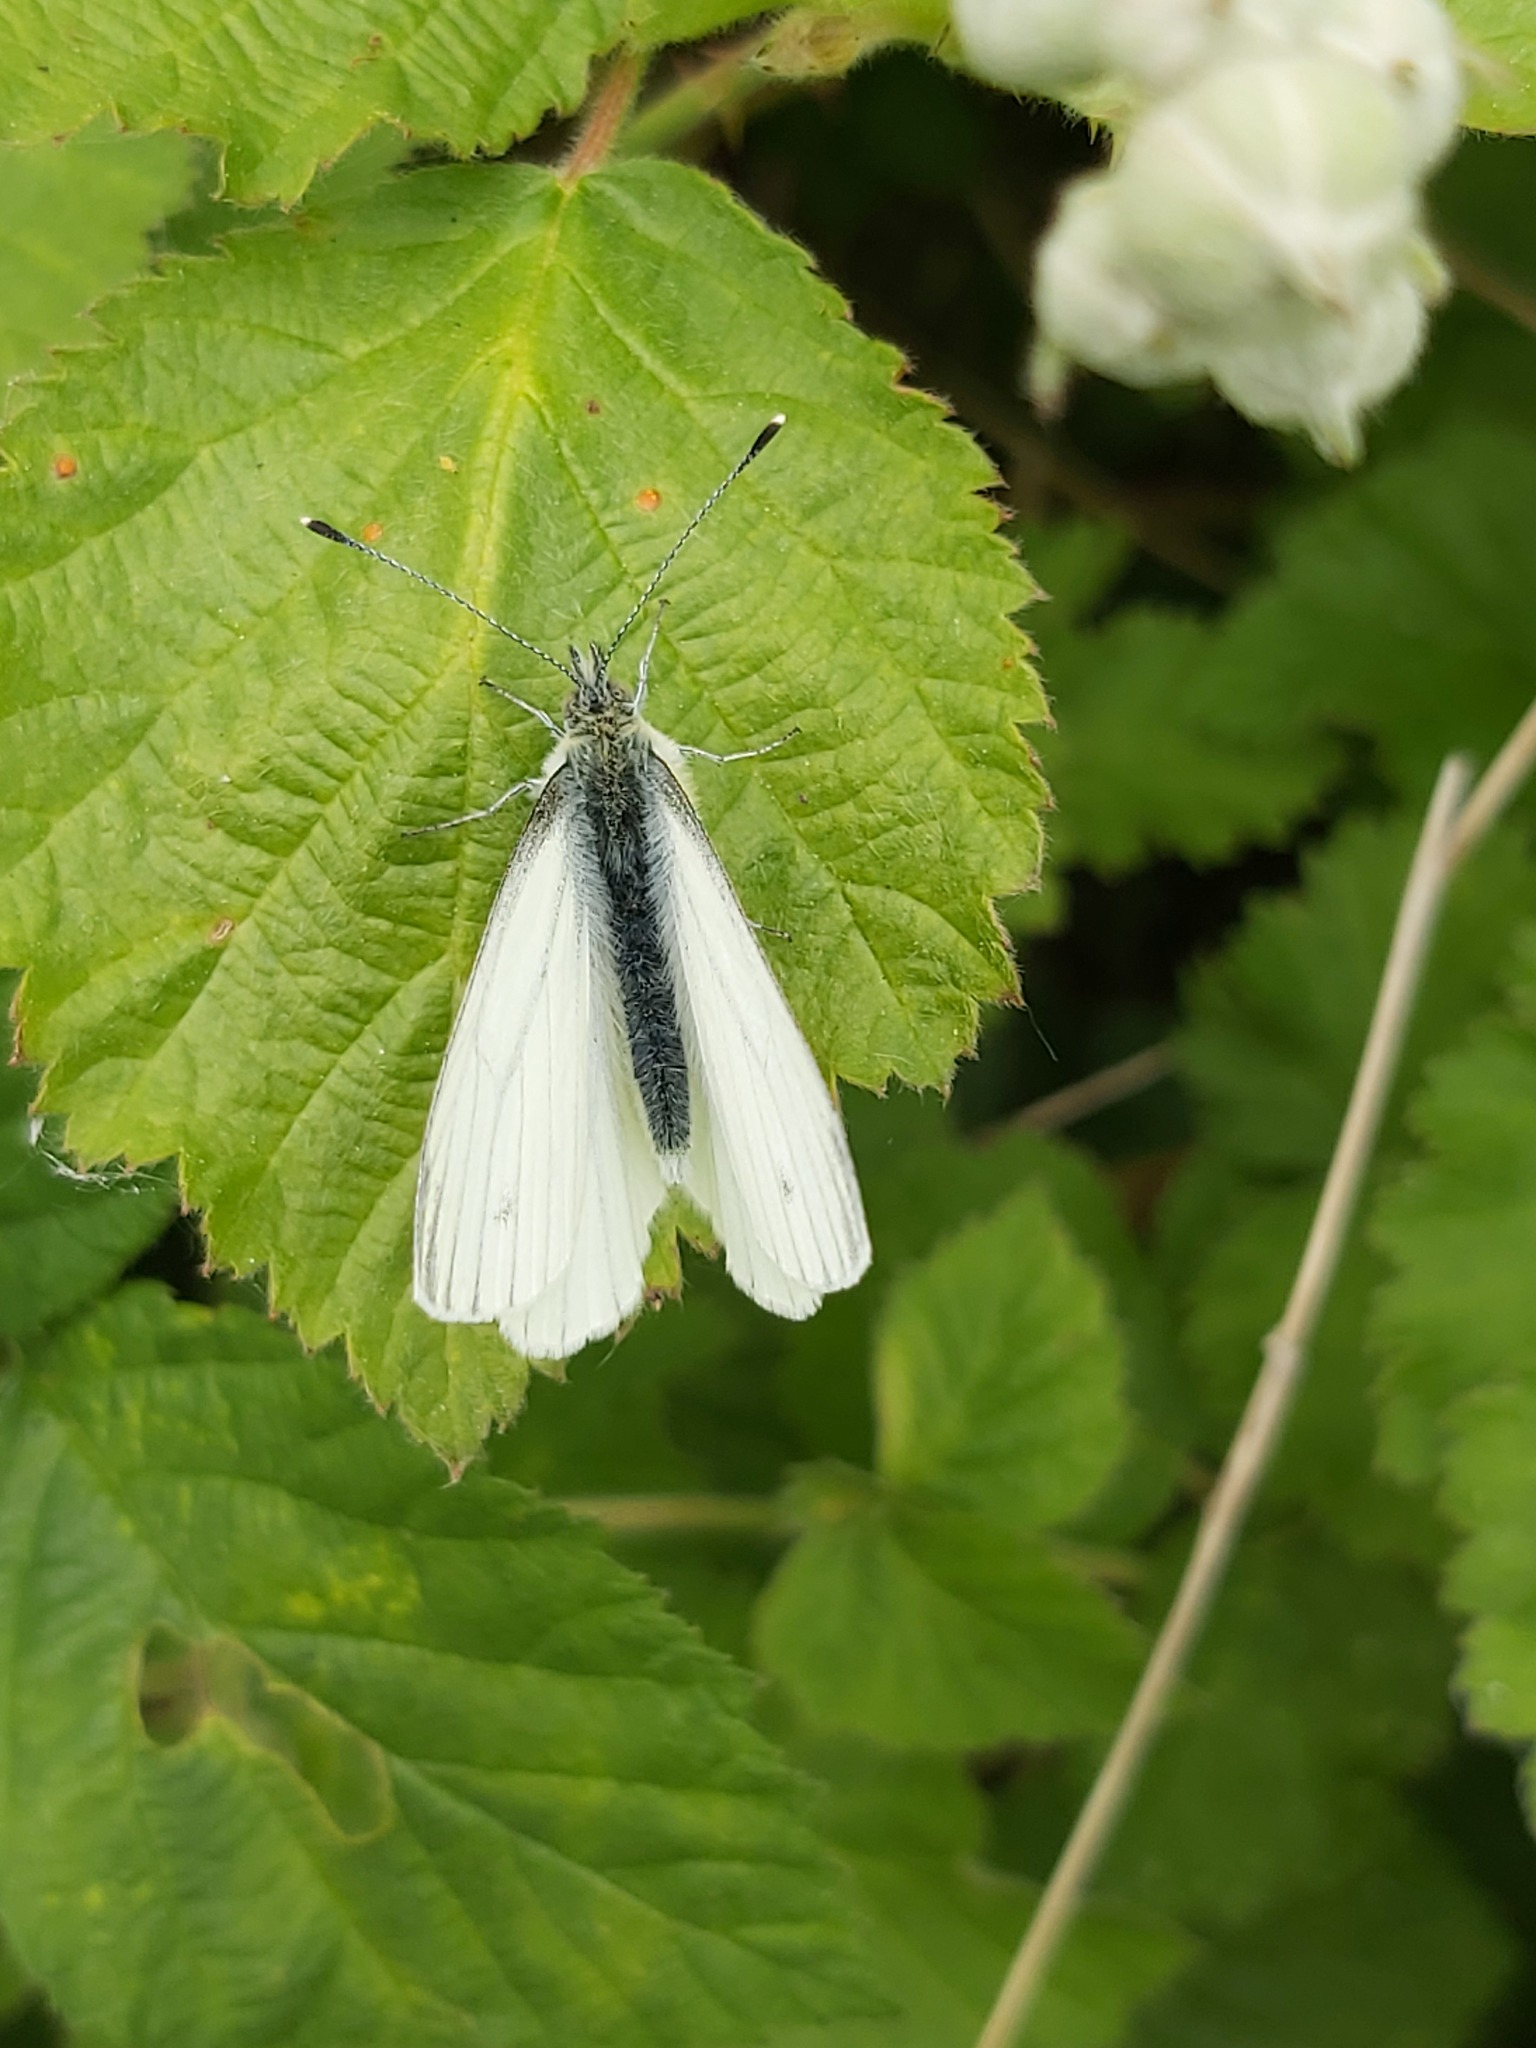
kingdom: Animalia
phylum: Arthropoda
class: Insecta
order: Lepidoptera
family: Pieridae
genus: Pieris
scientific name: Pieris napi
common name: Green-veined white
